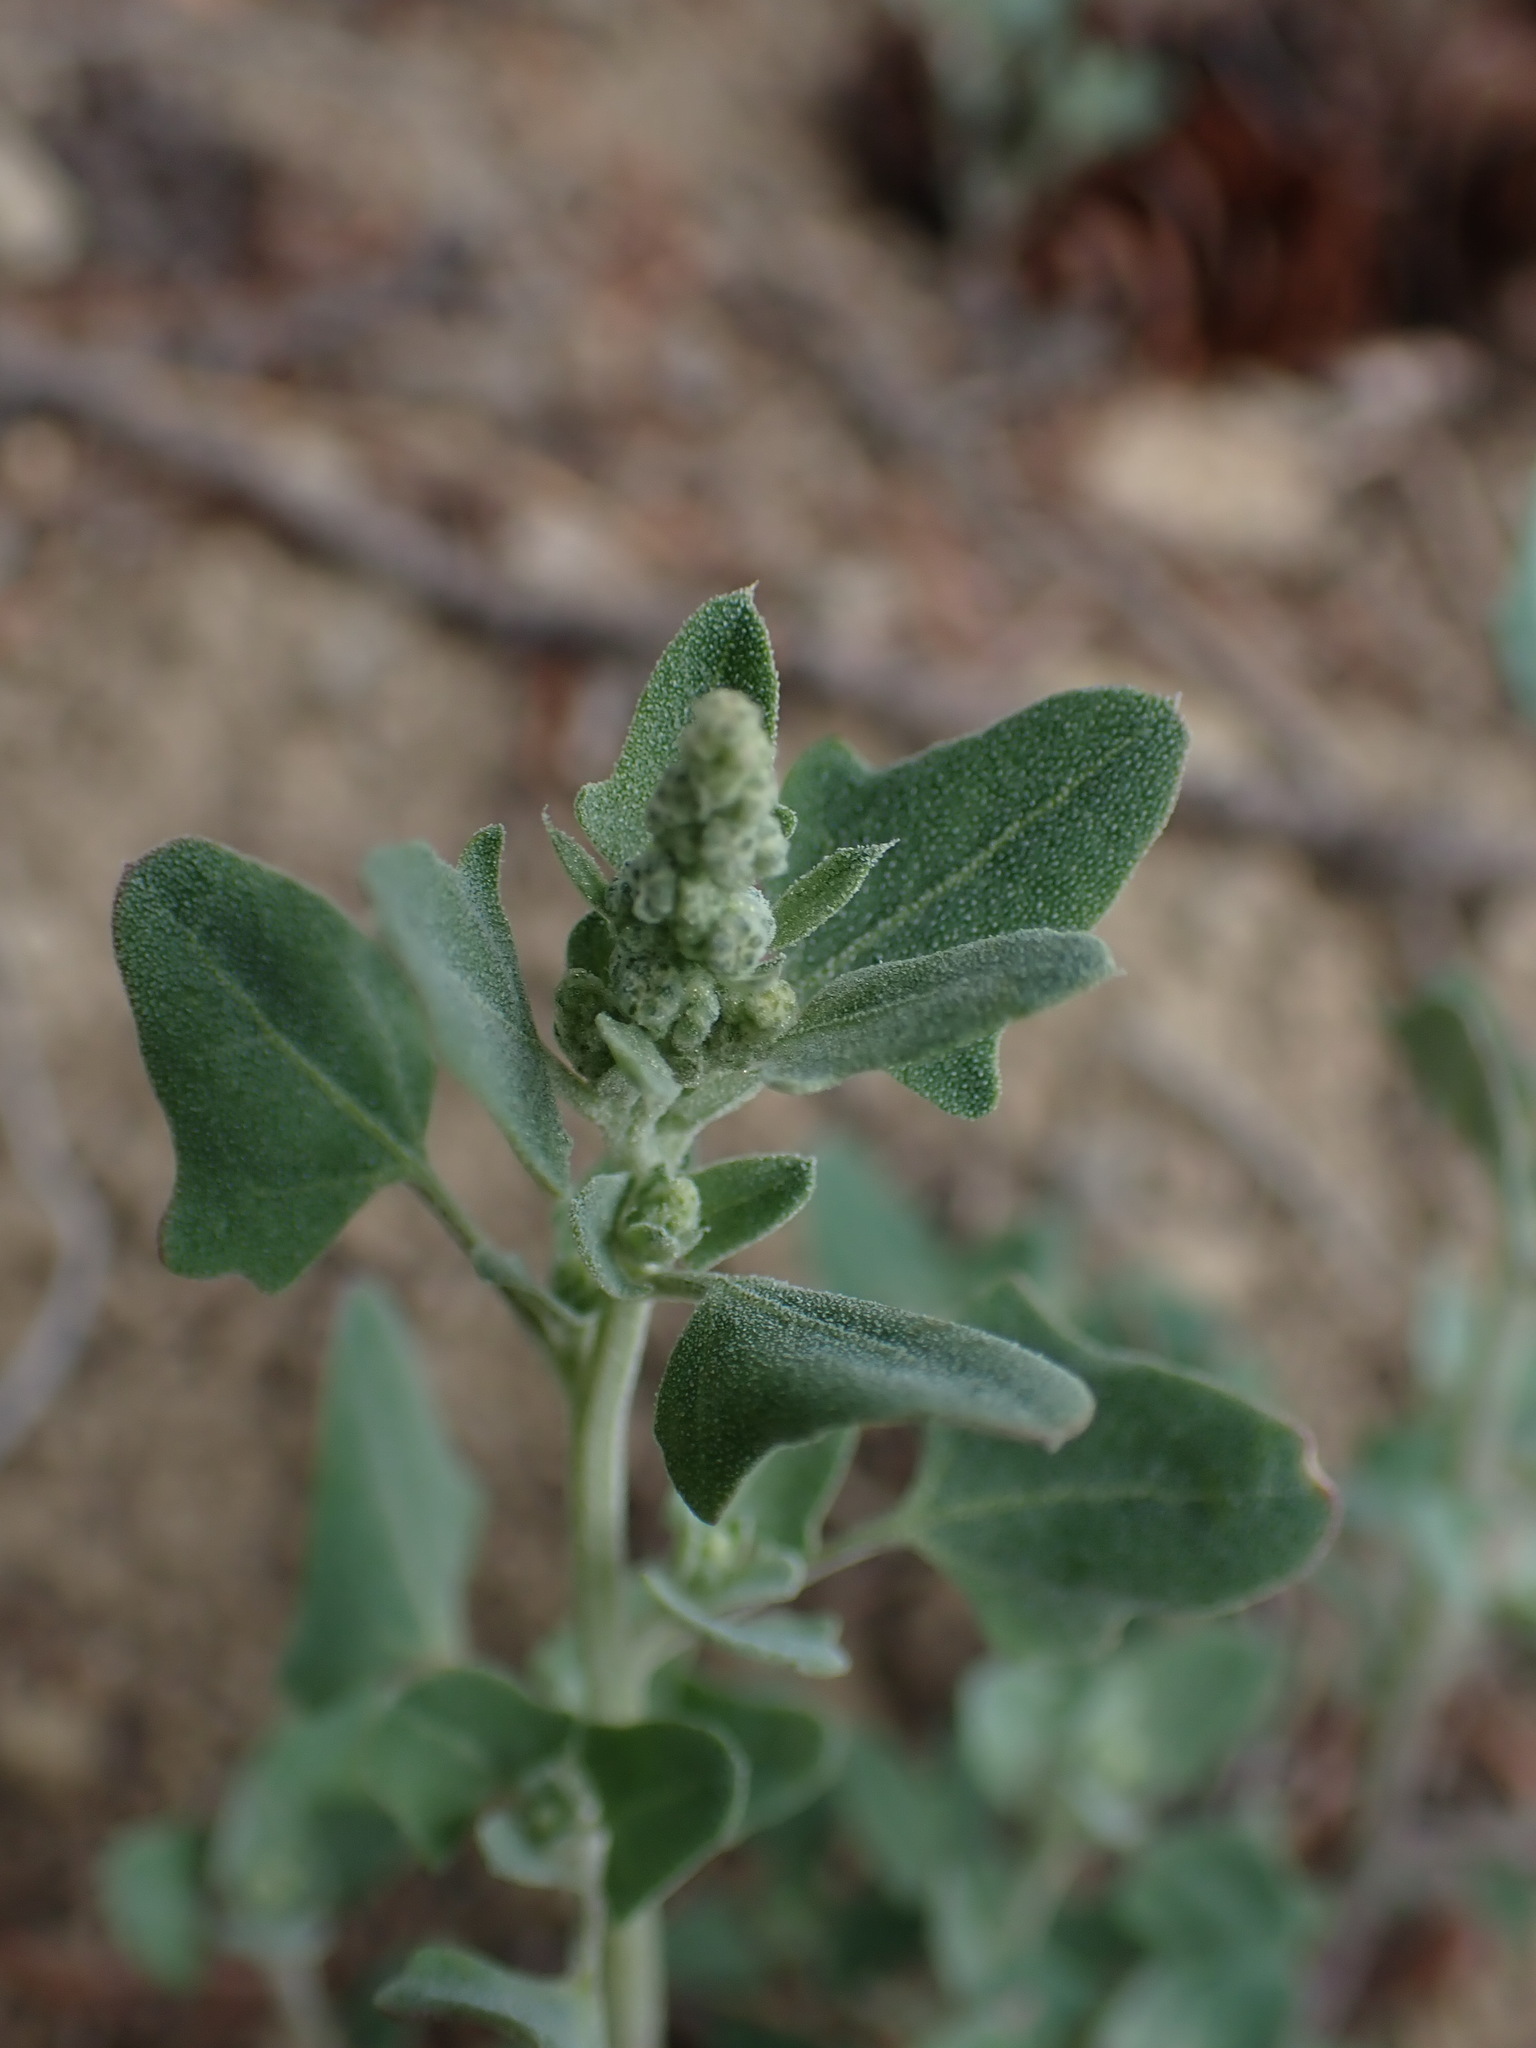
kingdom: Plantae
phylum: Tracheophyta
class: Magnoliopsida
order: Caryophyllales
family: Amaranthaceae
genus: Chenopodium
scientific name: Chenopodium album
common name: Fat-hen
